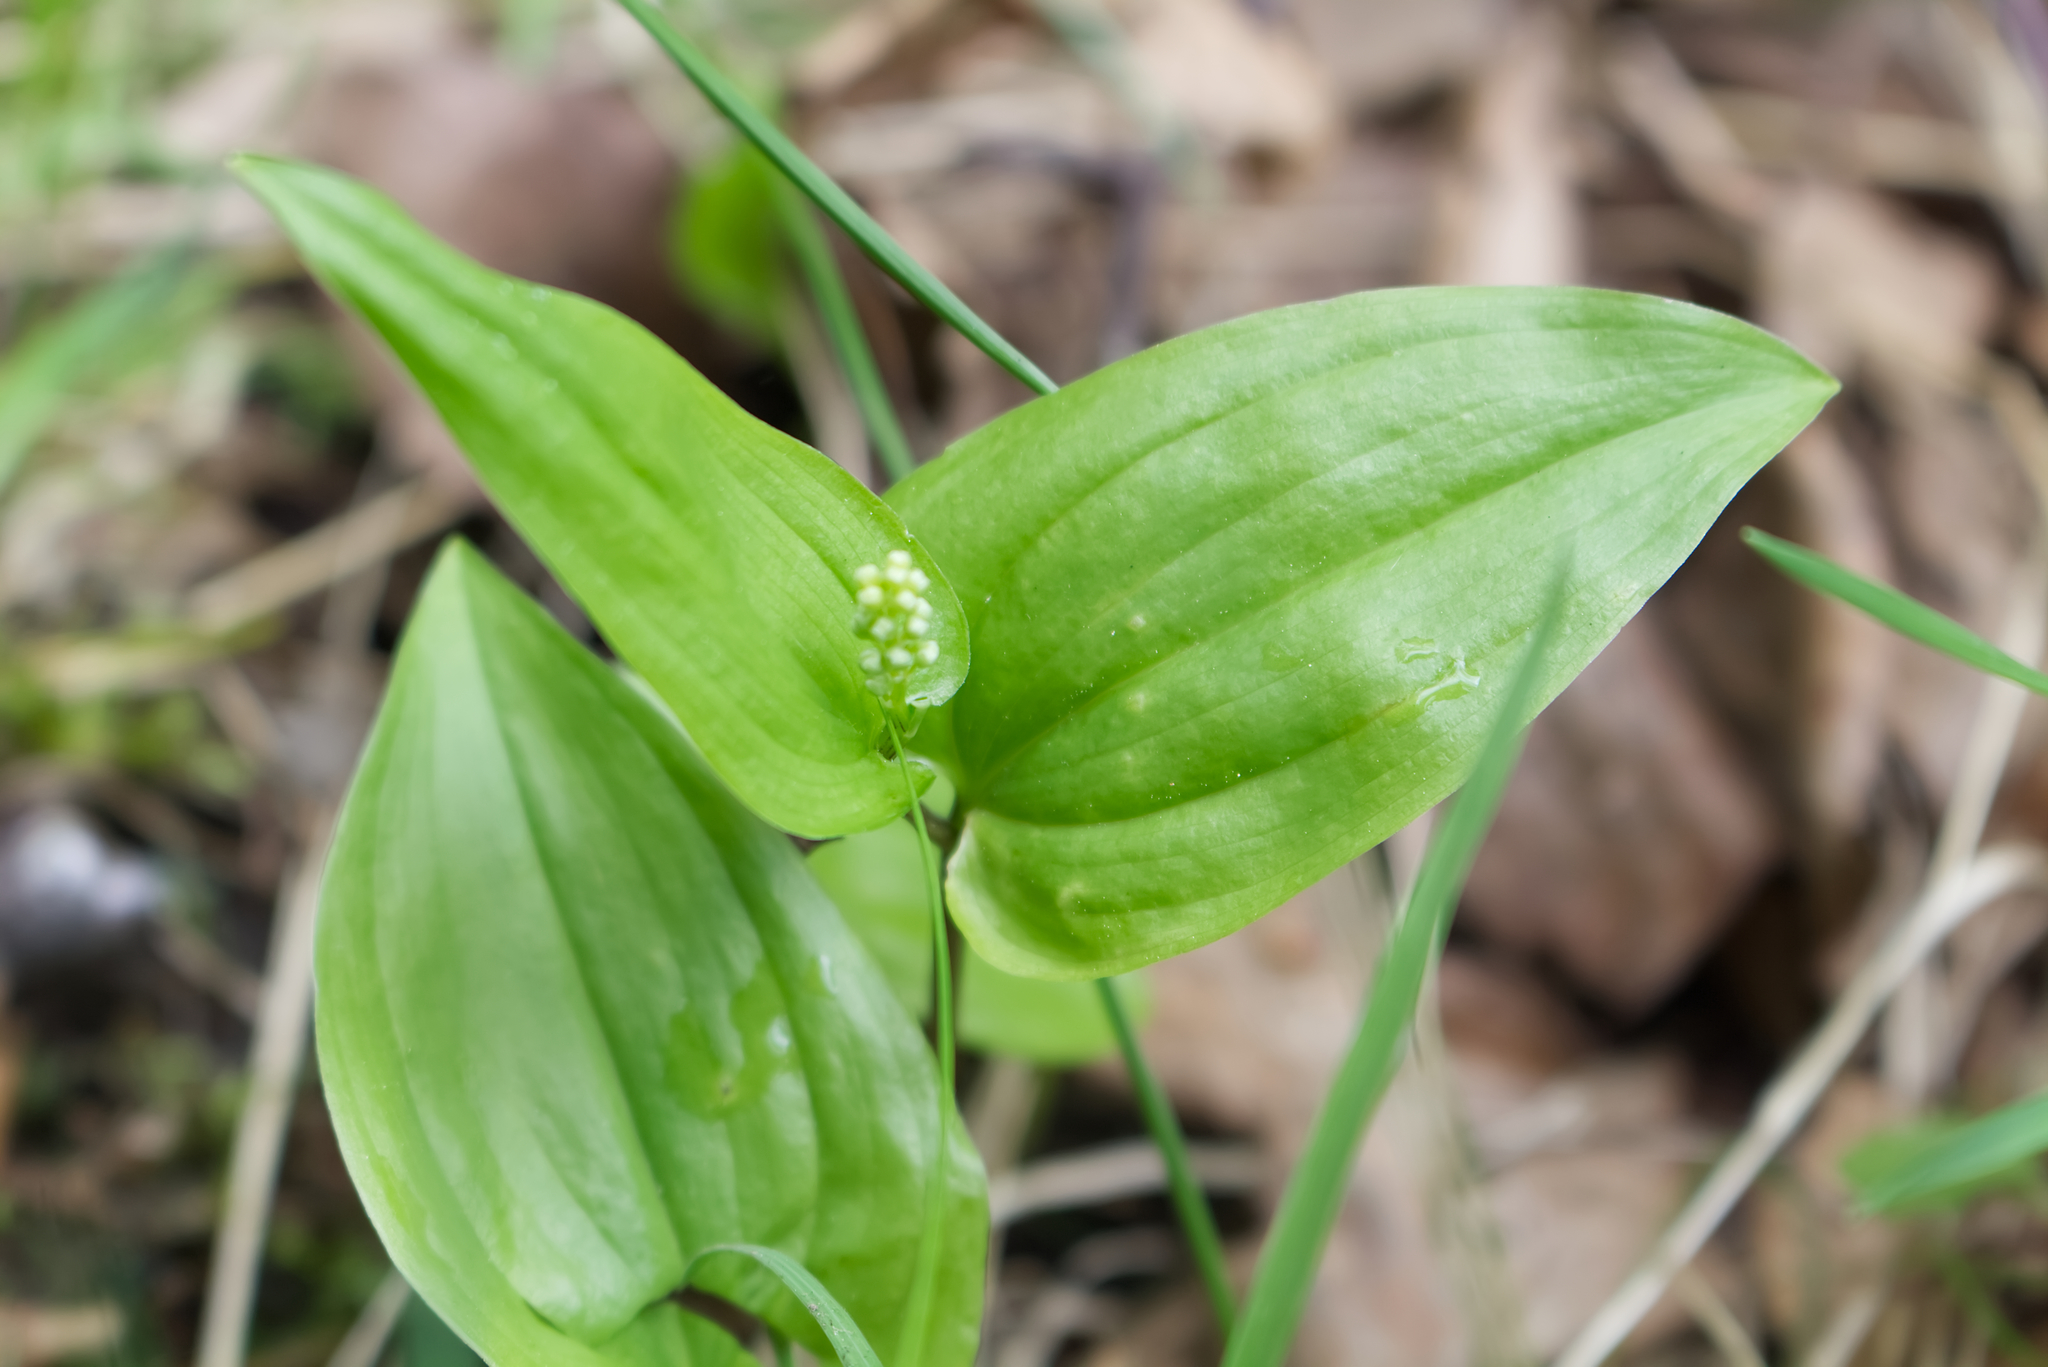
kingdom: Plantae
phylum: Tracheophyta
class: Liliopsida
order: Asparagales
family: Asparagaceae
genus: Maianthemum
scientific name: Maianthemum bifolium
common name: May lily
